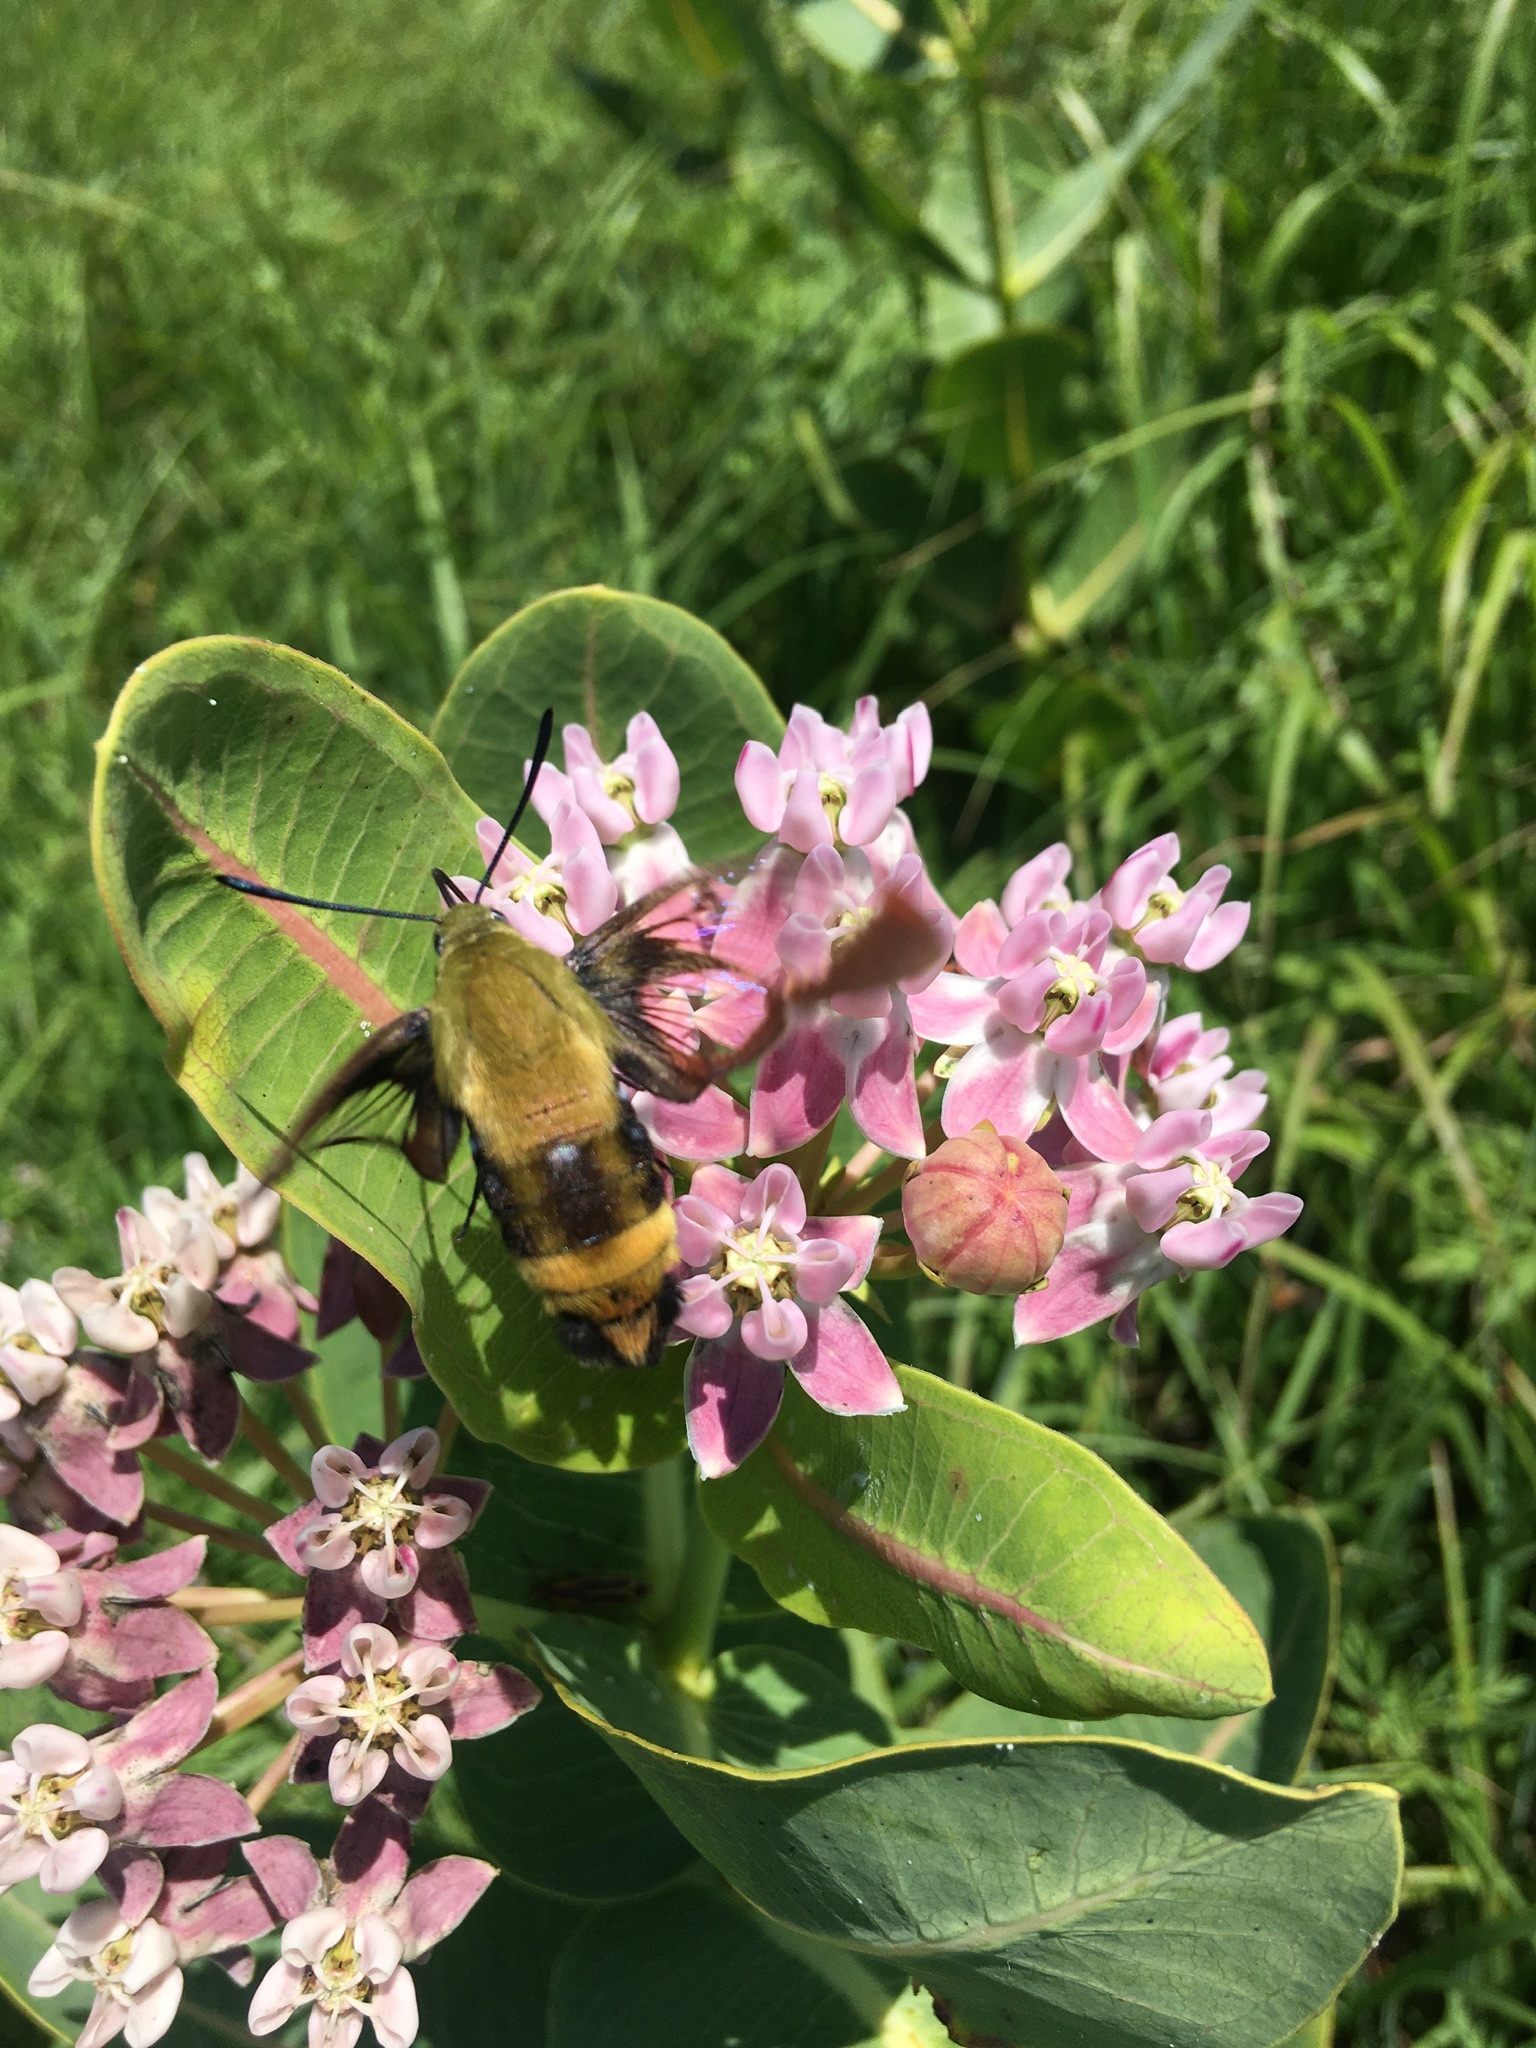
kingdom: Animalia
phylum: Arthropoda
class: Insecta
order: Lepidoptera
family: Sphingidae
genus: Hemaris
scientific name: Hemaris diffinis
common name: Bumblebee moth
